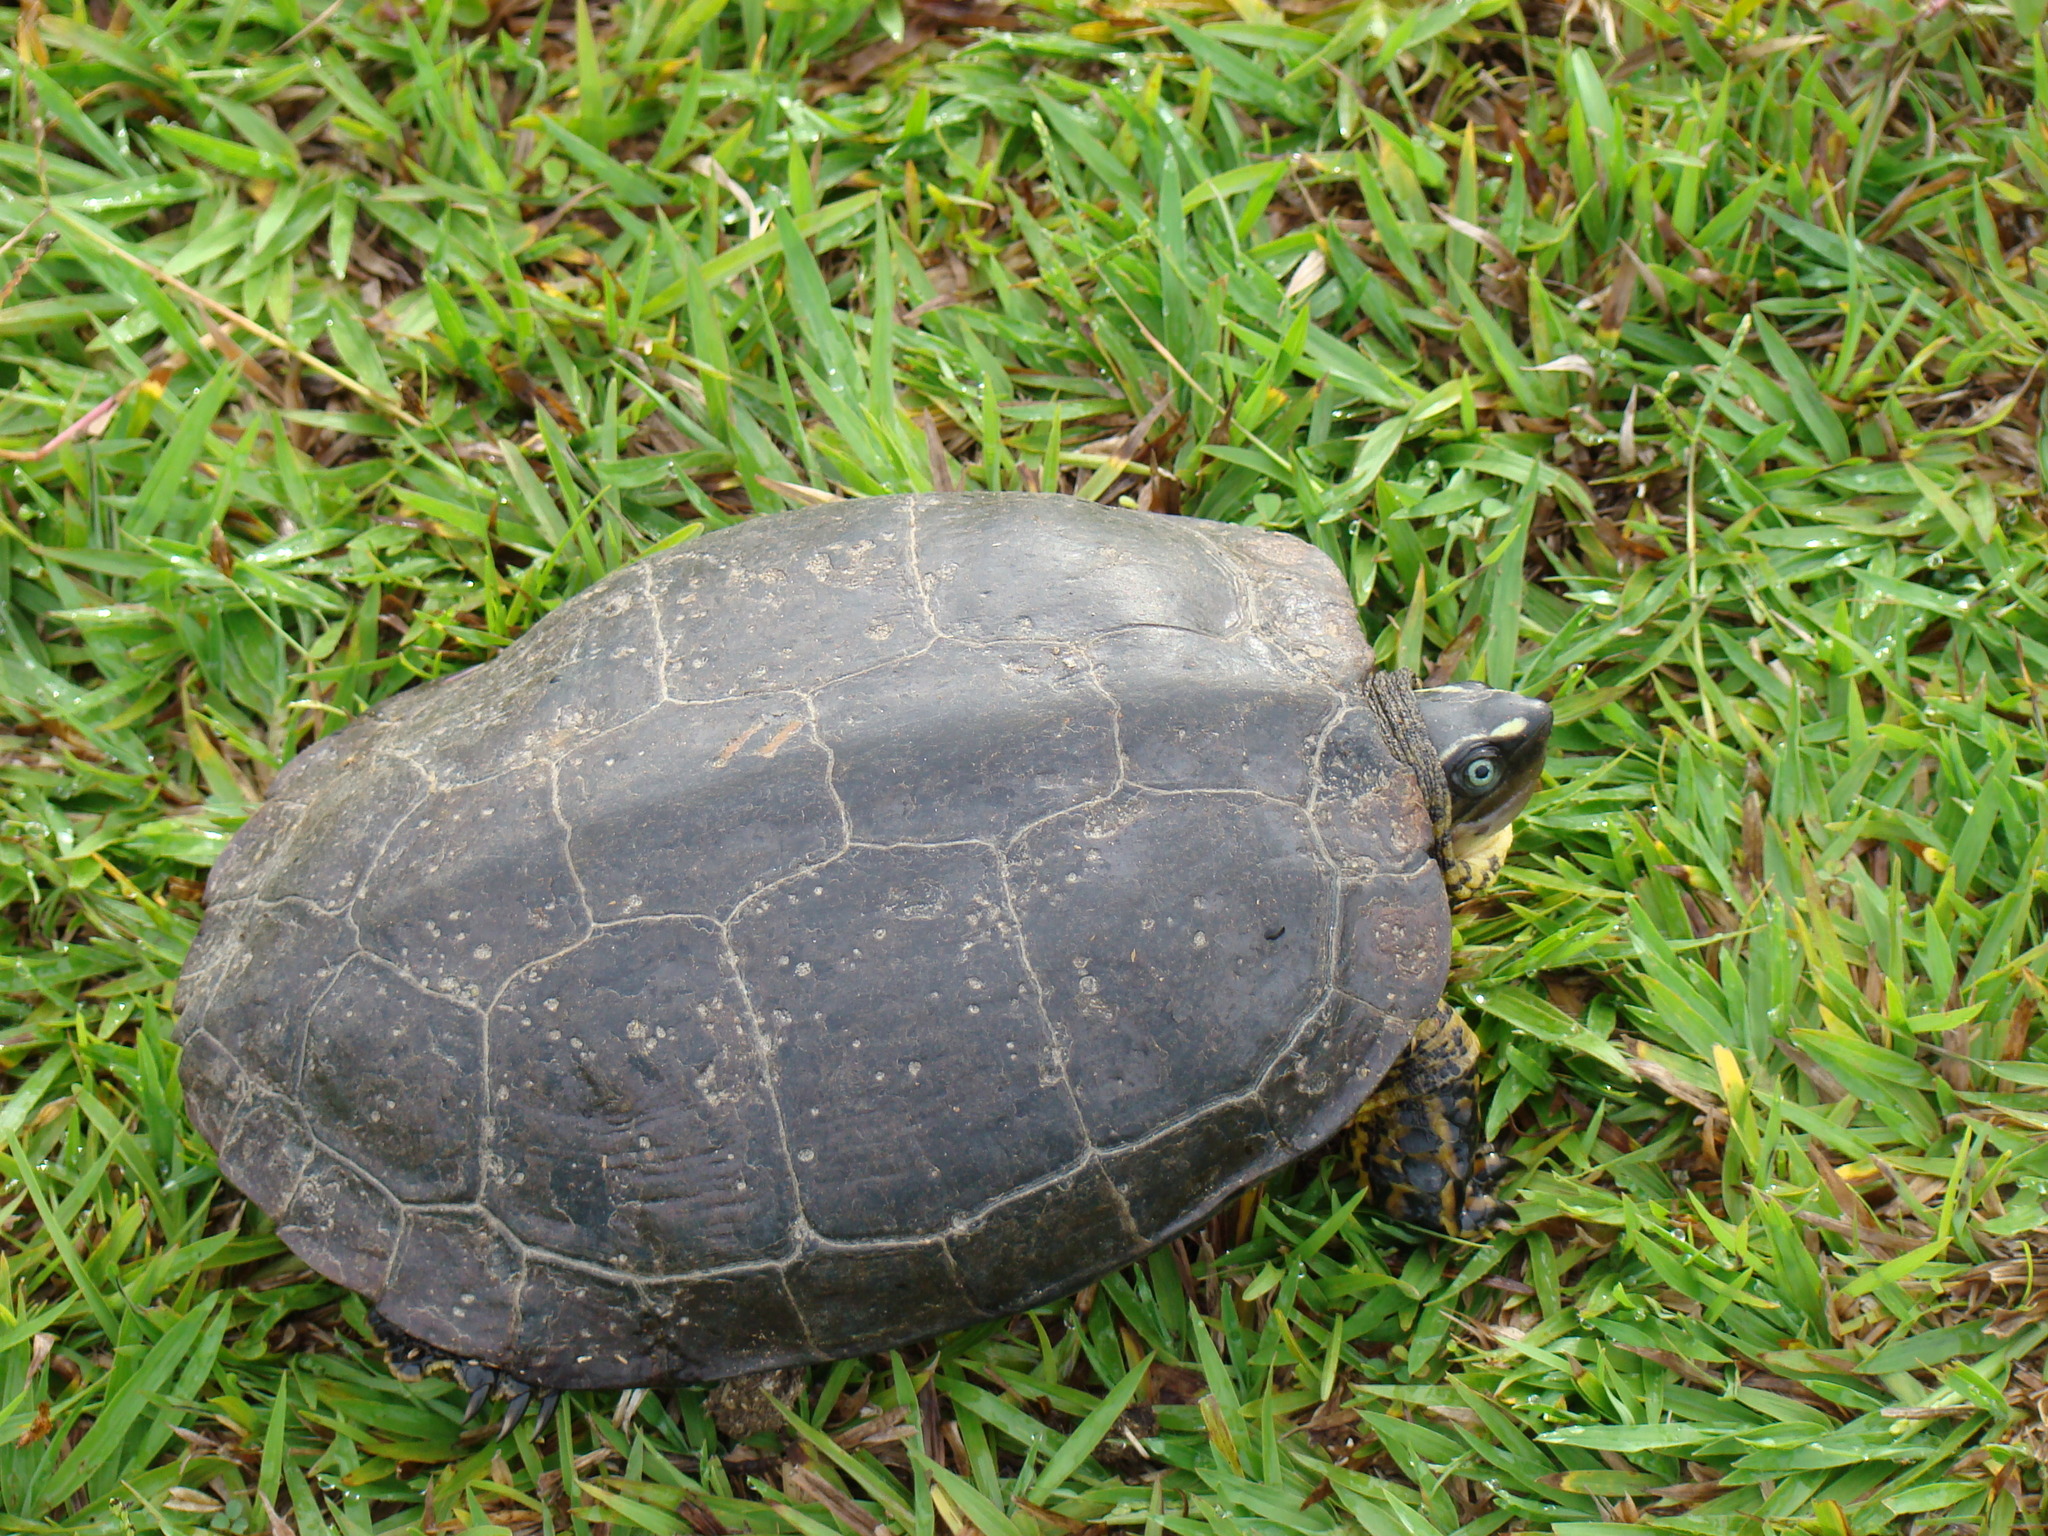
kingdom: Animalia
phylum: Chordata
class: Testudines
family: Geoemydidae
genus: Rhinoclemmys
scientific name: Rhinoclemmys melanosterna
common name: Colombian wood turtle
